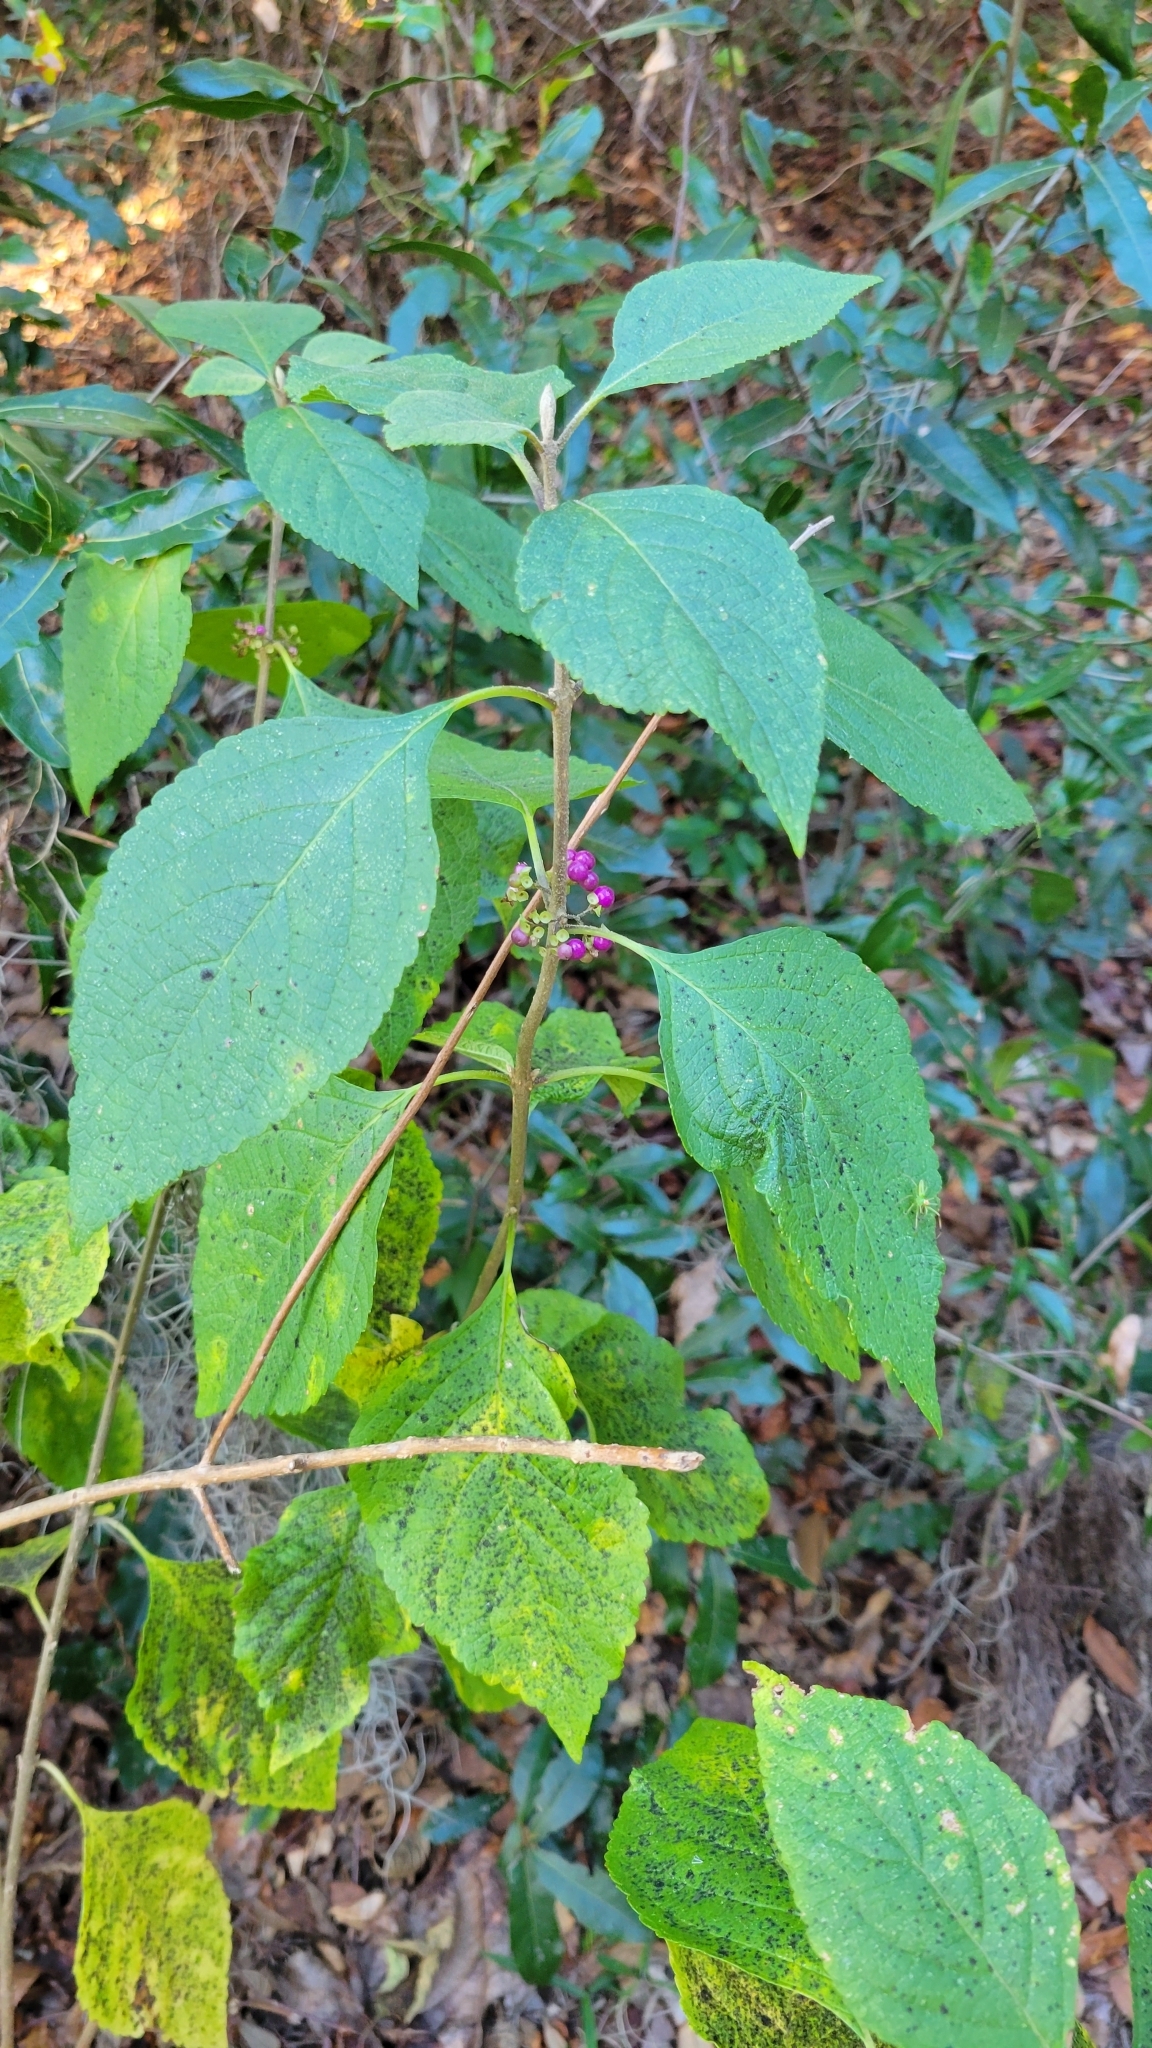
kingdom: Plantae
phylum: Tracheophyta
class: Magnoliopsida
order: Lamiales
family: Lamiaceae
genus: Callicarpa
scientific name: Callicarpa americana
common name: American beautyberry
